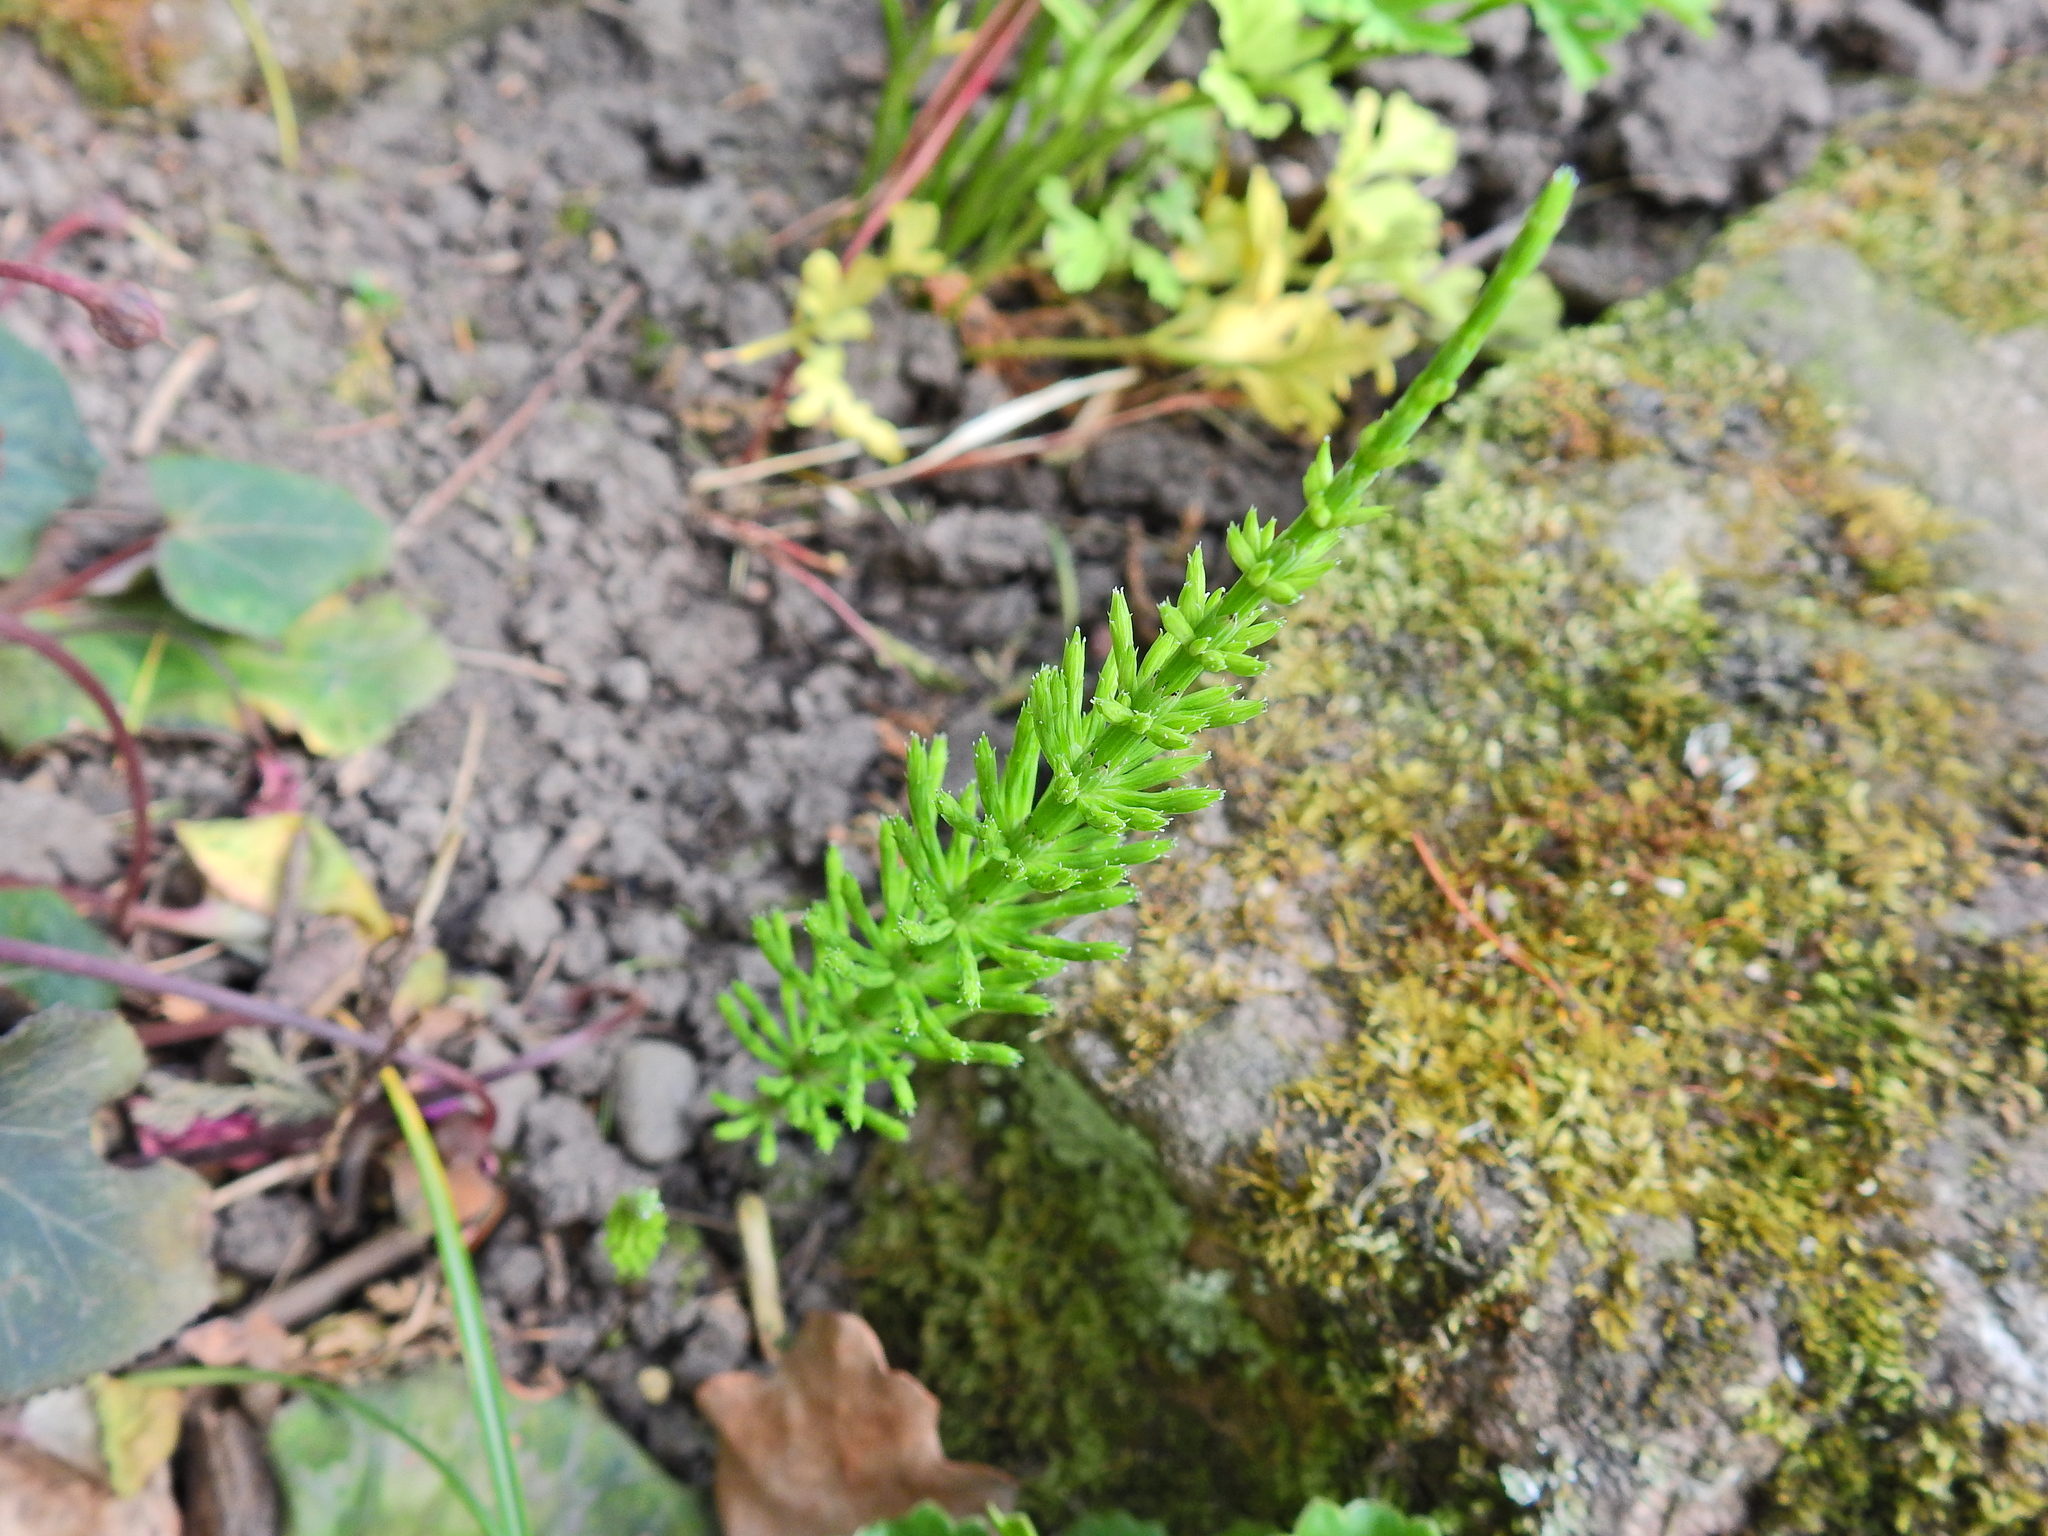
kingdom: Plantae
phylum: Tracheophyta
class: Polypodiopsida
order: Equisetales
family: Equisetaceae
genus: Equisetum
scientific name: Equisetum arvense
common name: Field horsetail
